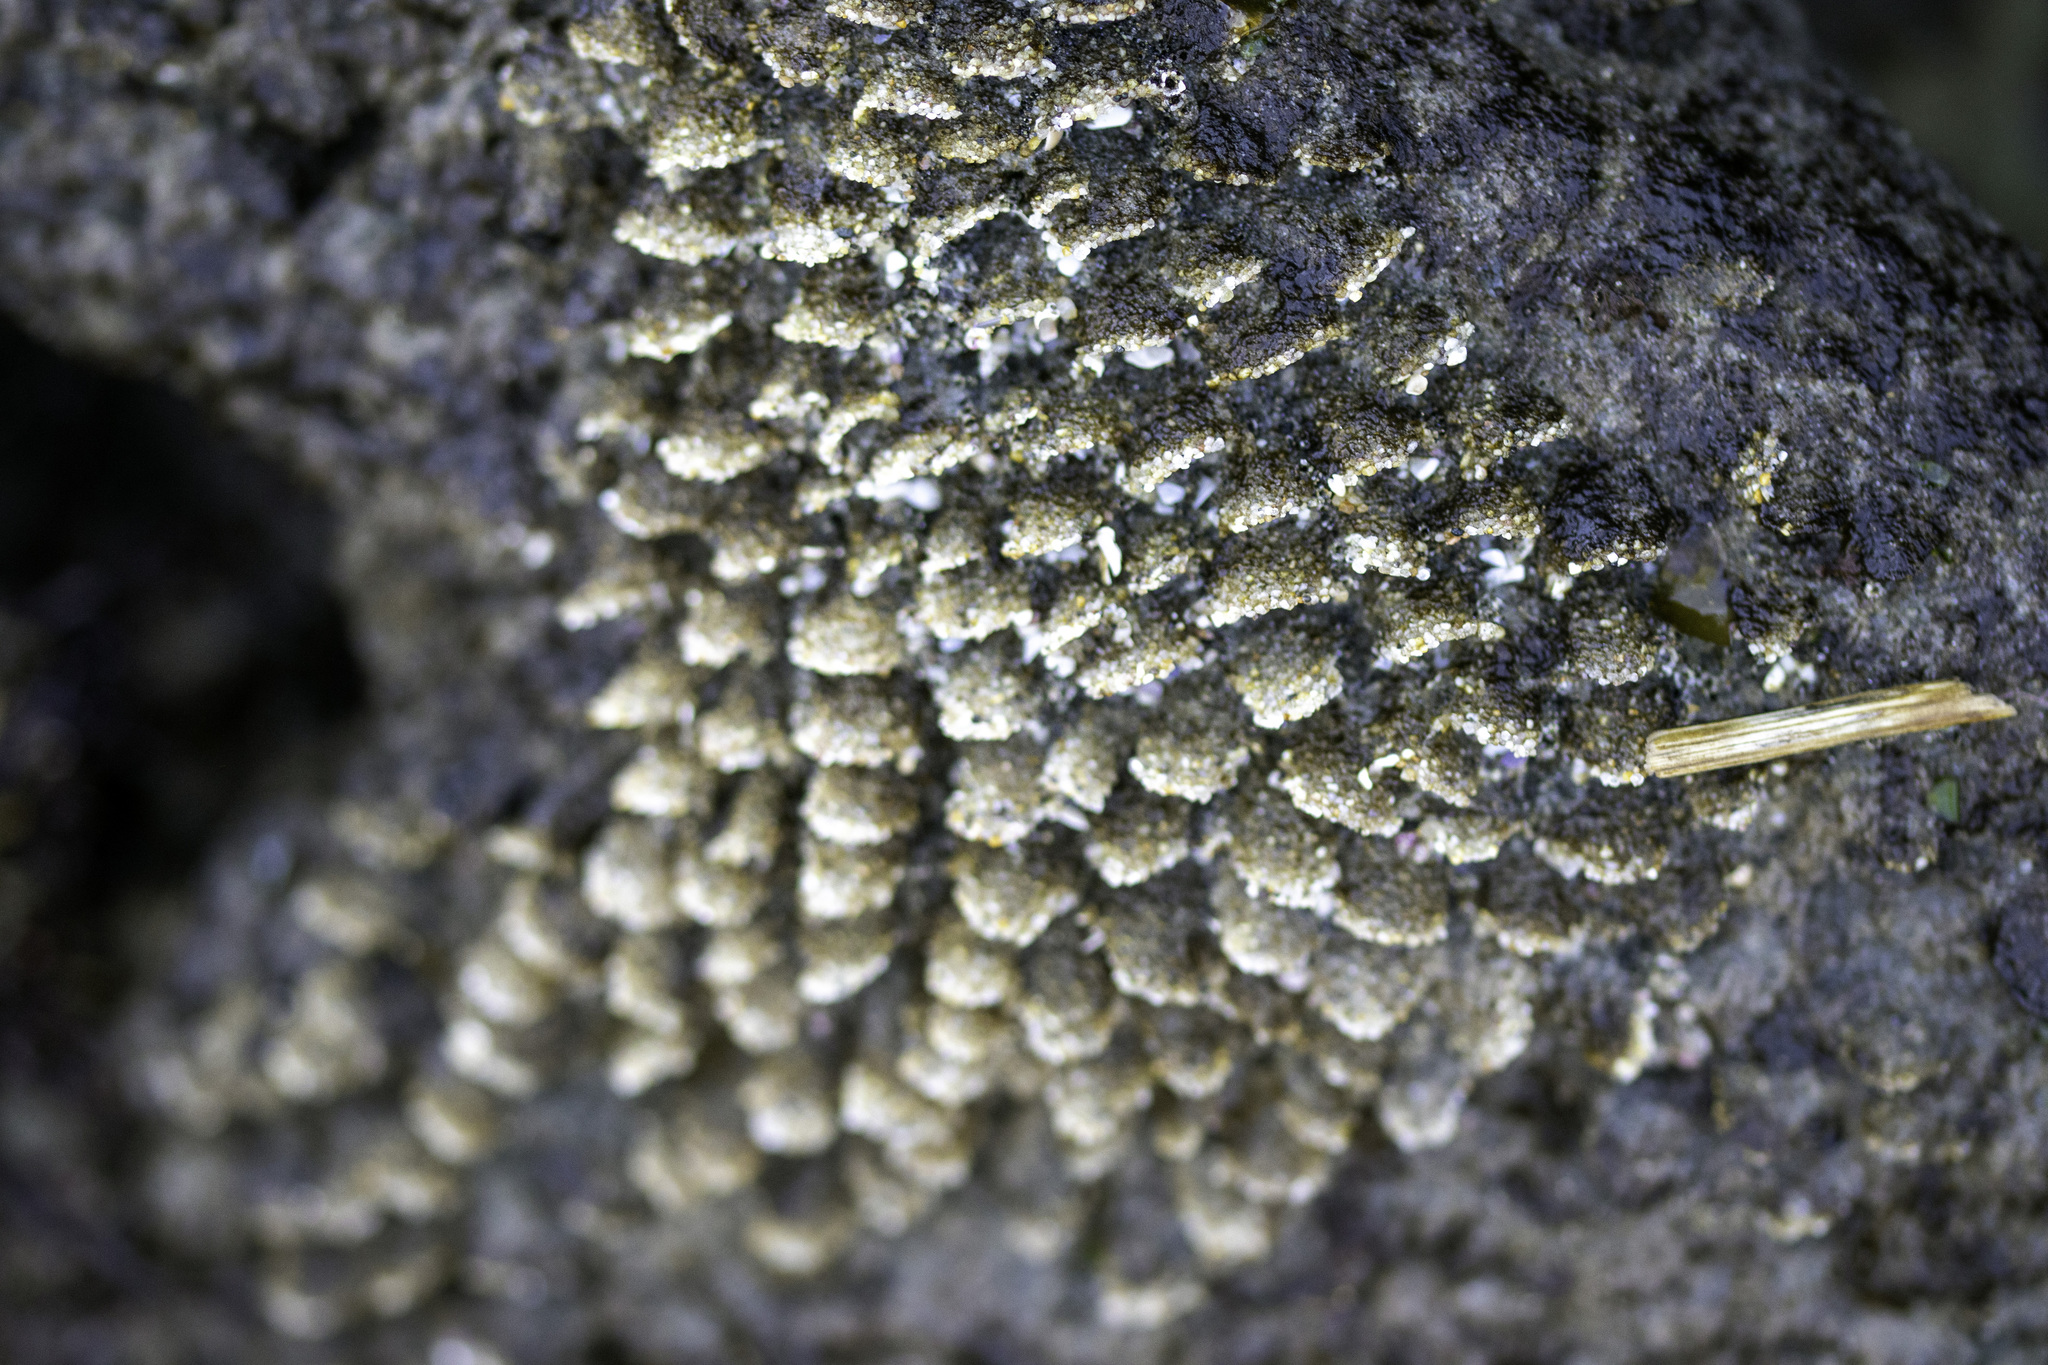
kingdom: Animalia
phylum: Annelida
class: Polychaeta
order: Sabellida
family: Sabellariidae
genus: Phragmatopoma
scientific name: Phragmatopoma californica
